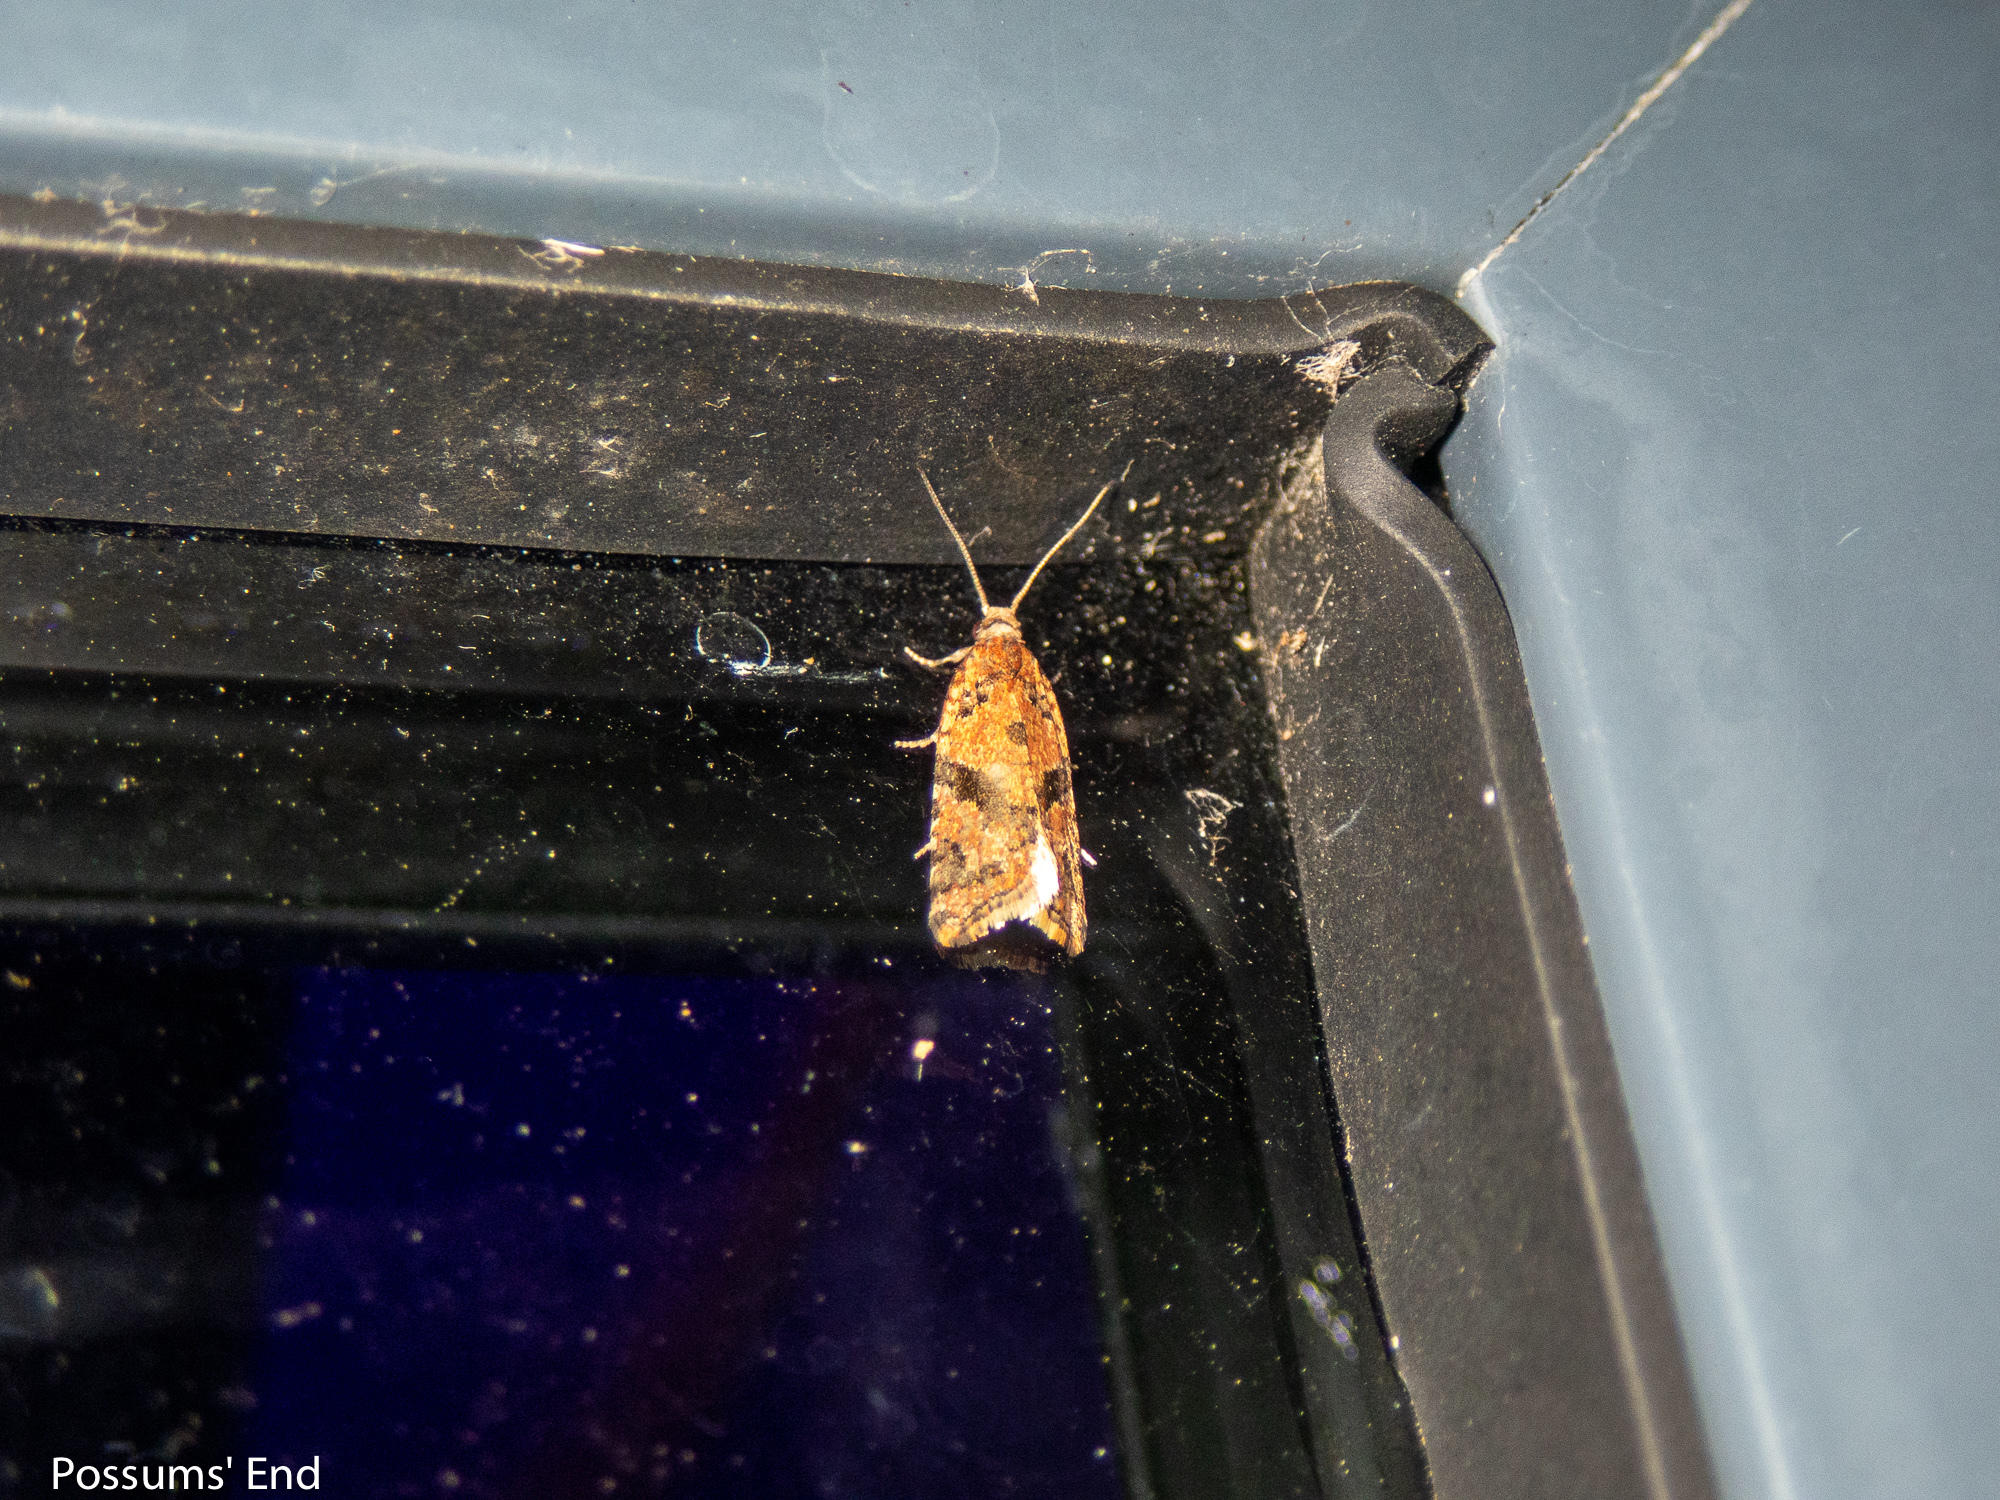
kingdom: Animalia
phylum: Arthropoda
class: Insecta
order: Lepidoptera
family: Tortricidae
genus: Capua
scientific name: Capua semiferana
